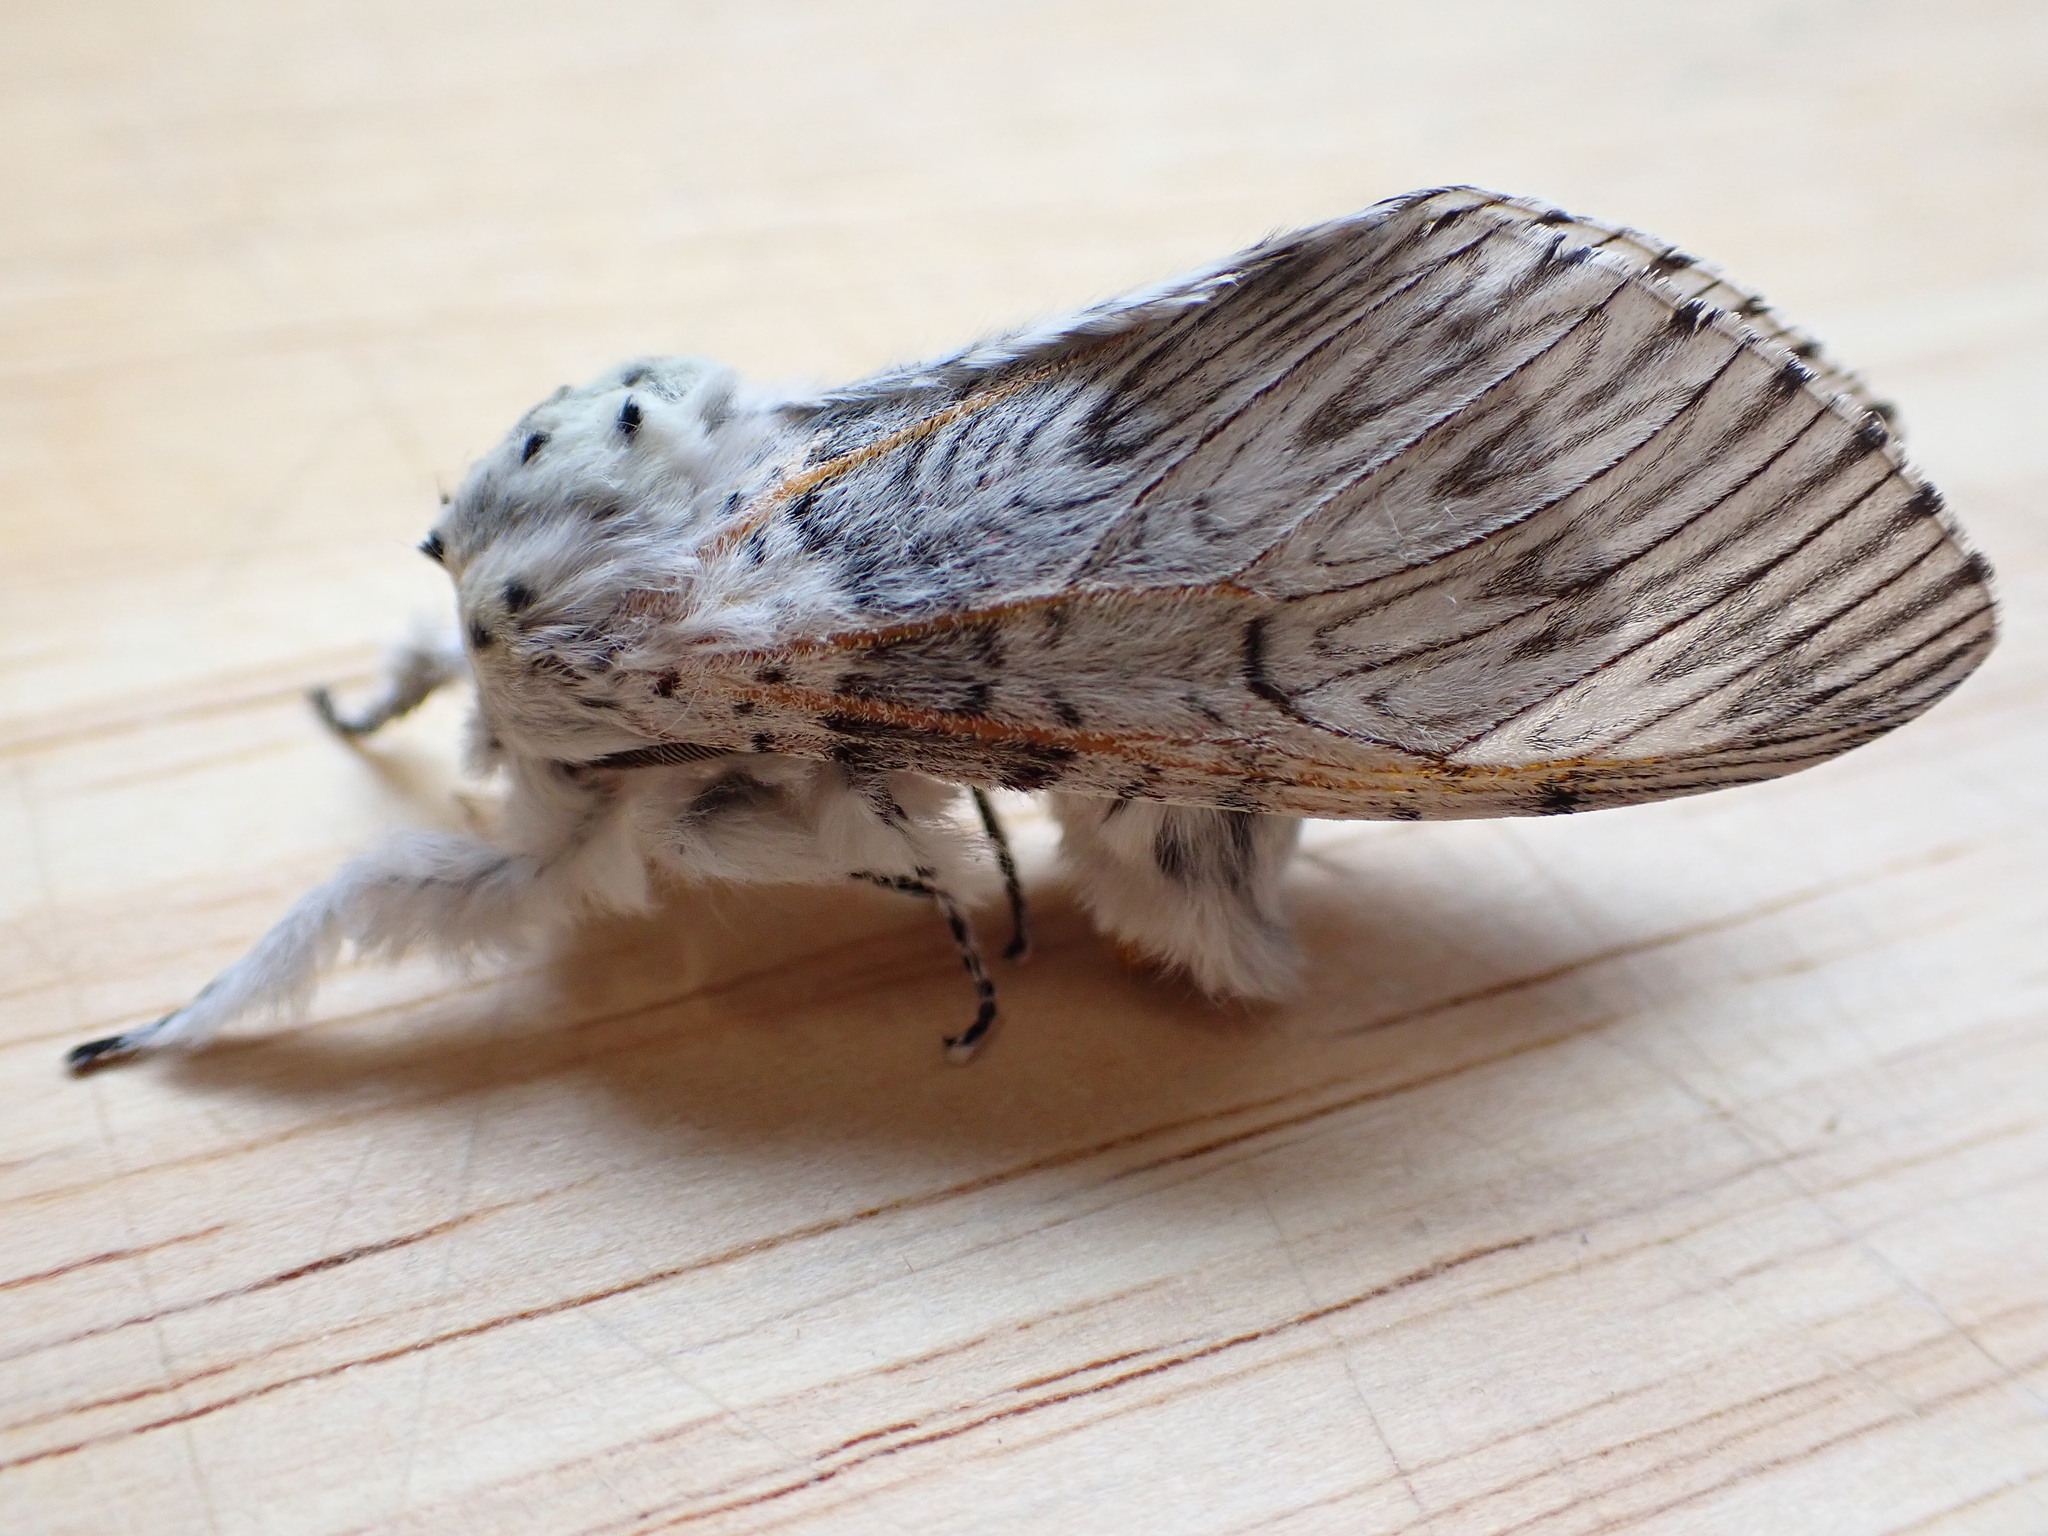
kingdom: Animalia
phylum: Arthropoda
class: Insecta
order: Lepidoptera
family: Notodontidae
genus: Cerura
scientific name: Cerura vinula
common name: Puss moth
